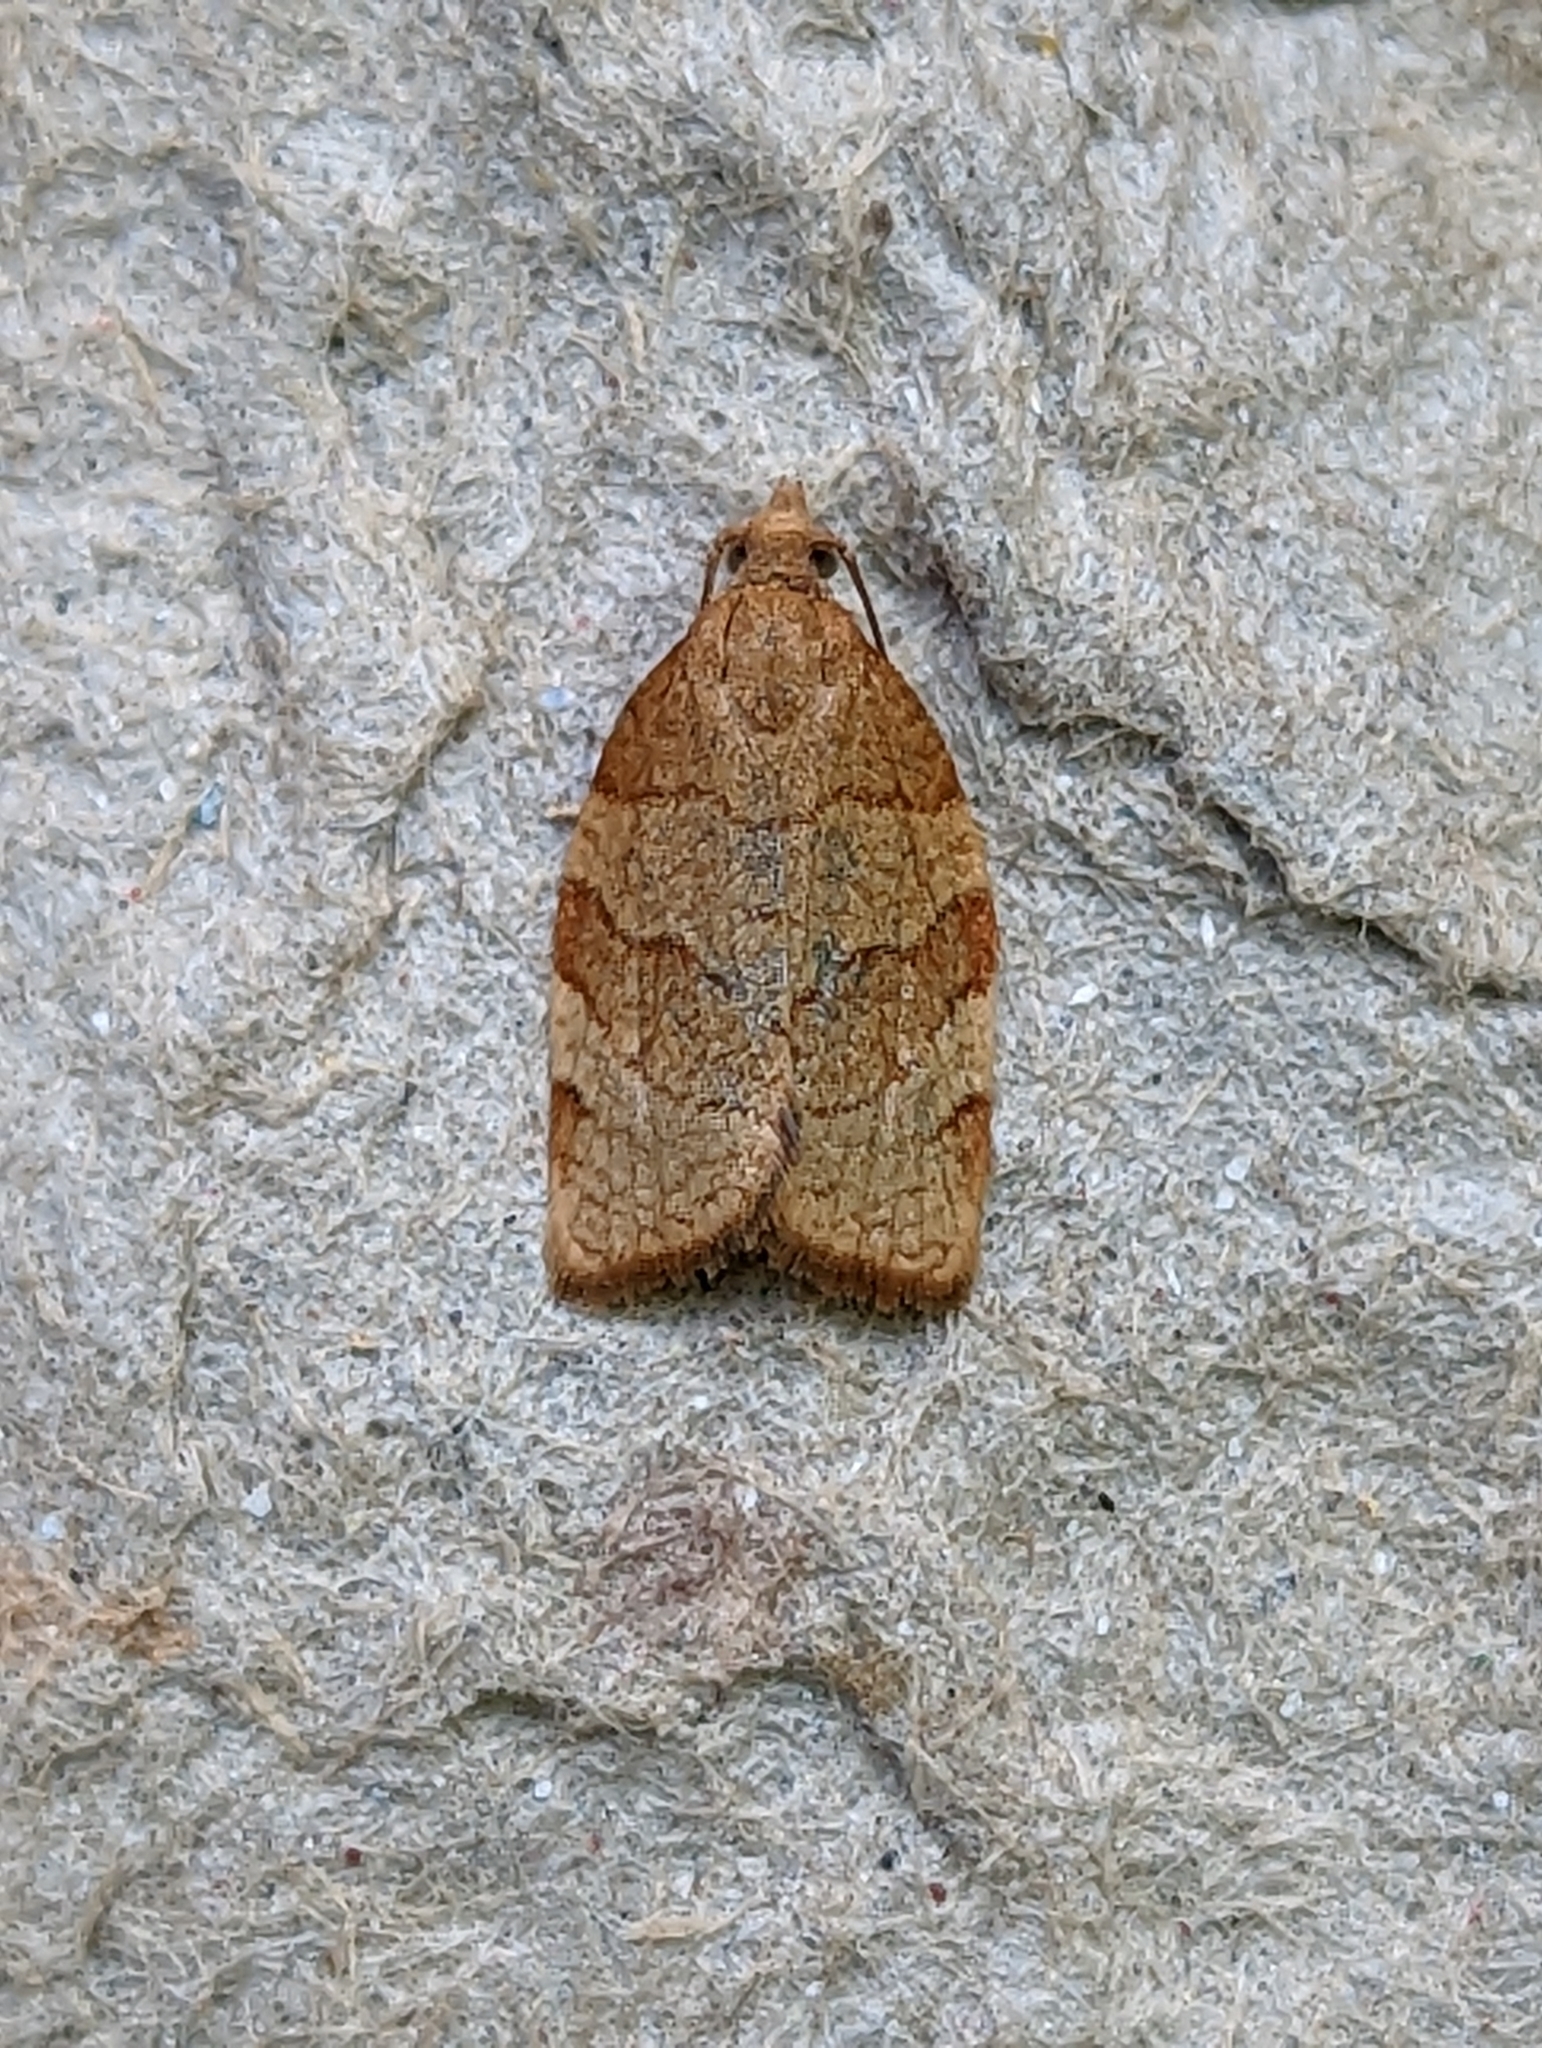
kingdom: Animalia
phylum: Arthropoda
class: Insecta
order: Lepidoptera
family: Tortricidae
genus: Pandemis
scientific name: Pandemis cerasana
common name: Barred fruit-tree tortrix
